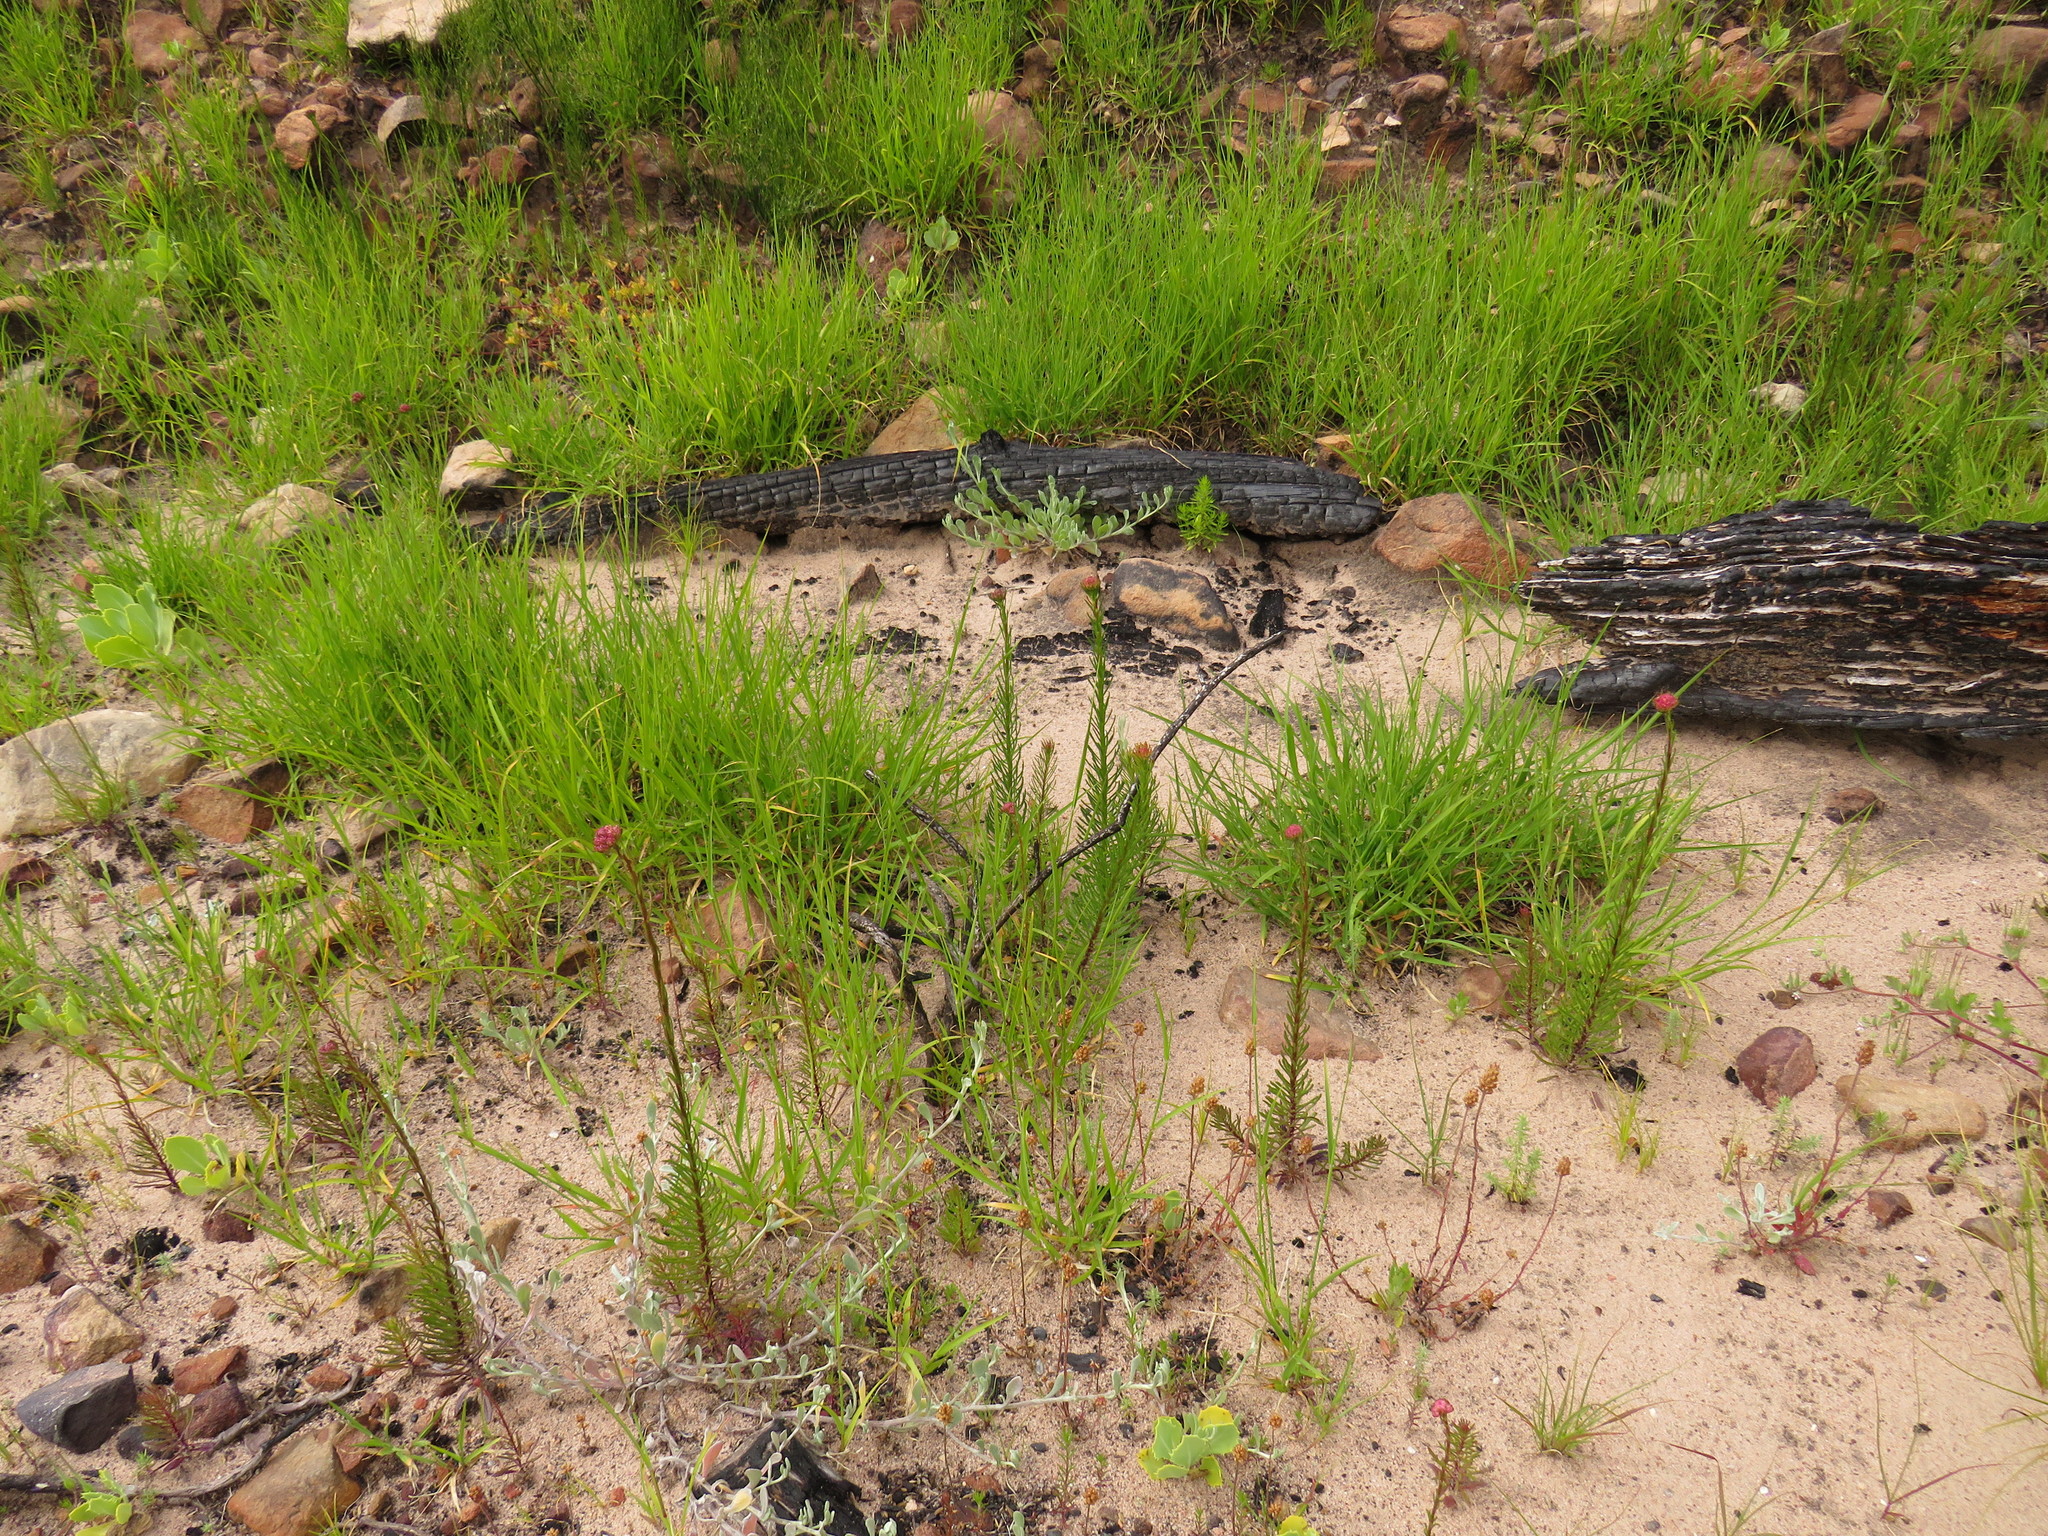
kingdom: Plantae
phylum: Tracheophyta
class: Magnoliopsida
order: Lamiales
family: Scrophulariaceae
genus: Pseudoselago
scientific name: Pseudoselago spuria
